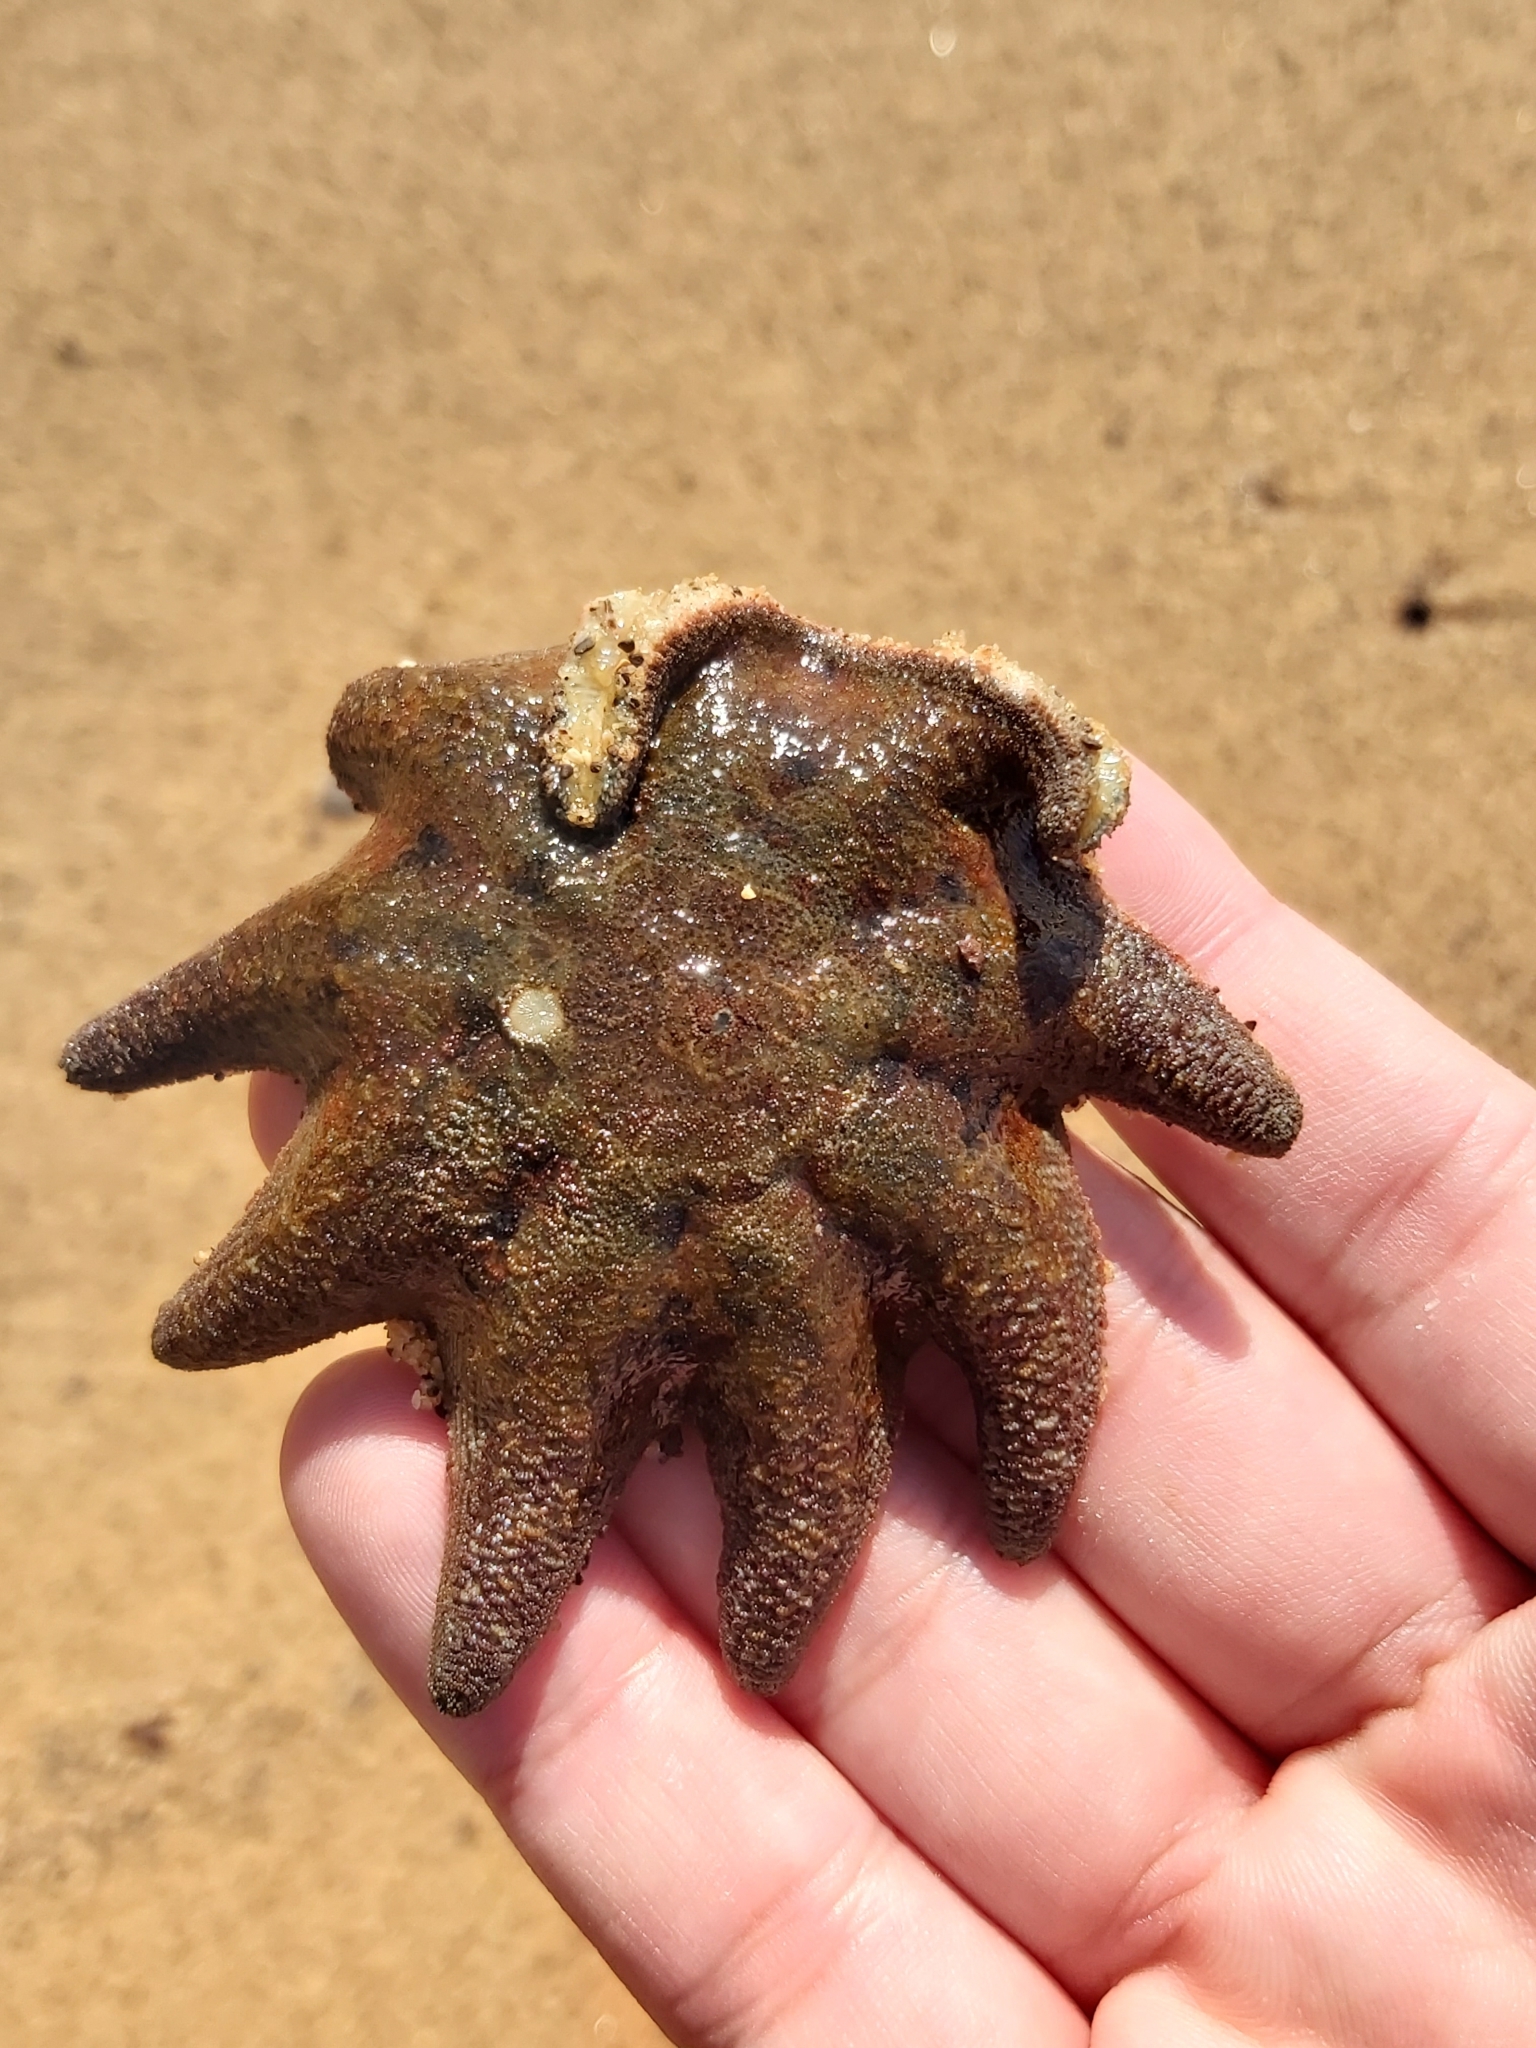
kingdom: Animalia
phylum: Echinodermata
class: Asteroidea
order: Valvatida
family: Asterinidae
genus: Meridiastra
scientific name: Meridiastra calcar
